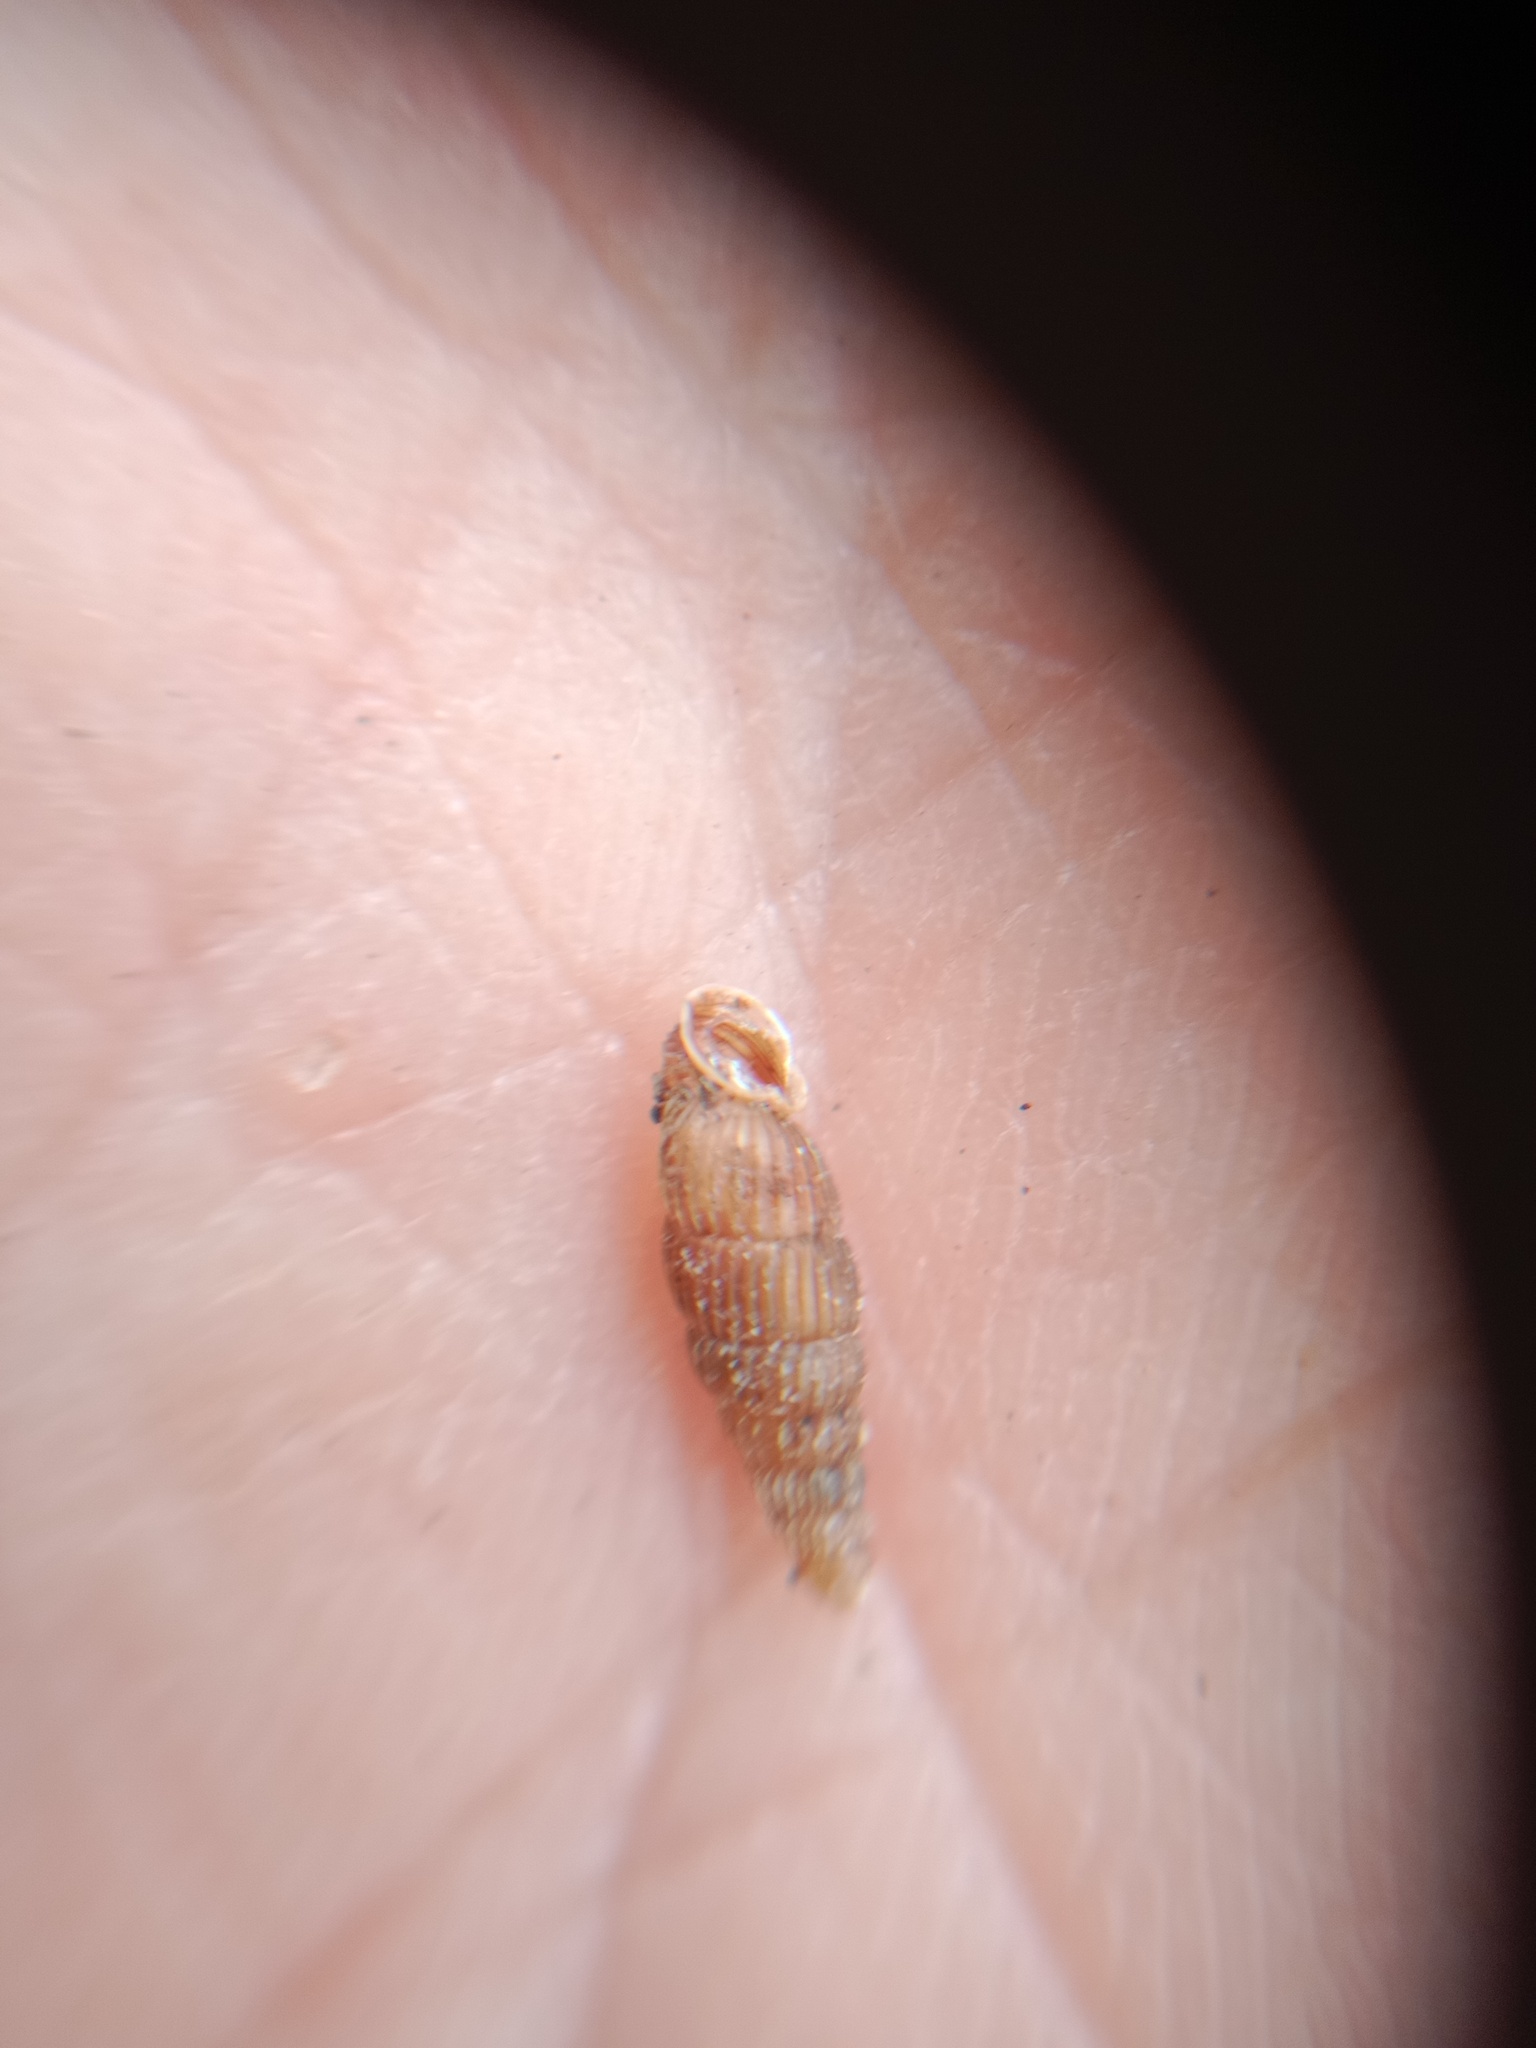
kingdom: Animalia
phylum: Mollusca
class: Gastropoda
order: Stylommatophora
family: Clausiliidae
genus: Ruthenica
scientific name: Ruthenica filograna
